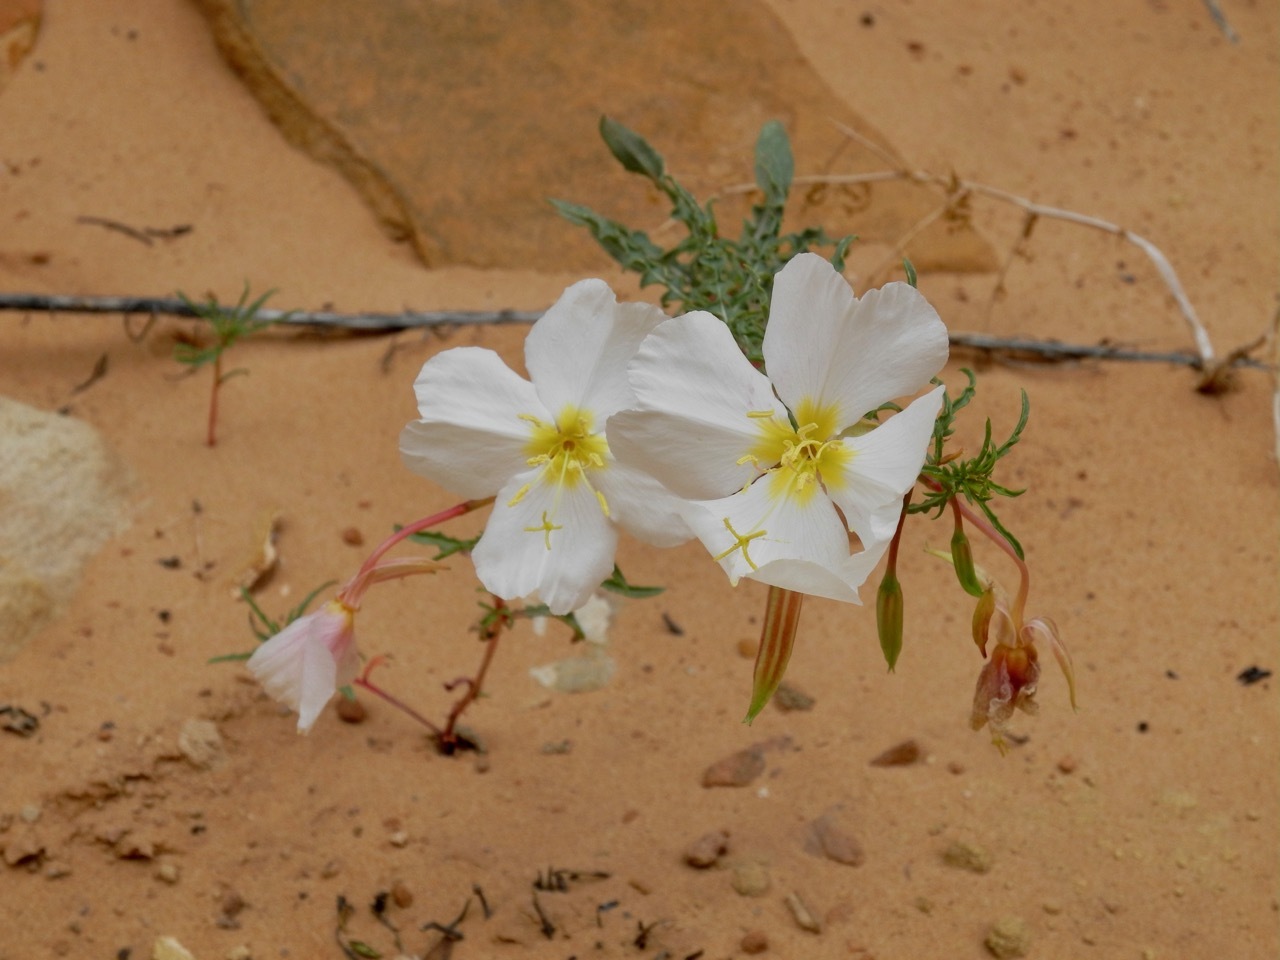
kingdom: Plantae
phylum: Tracheophyta
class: Magnoliopsida
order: Myrtales
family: Onagraceae
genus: Oenothera
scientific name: Oenothera pallida
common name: Pale evening-primrose
